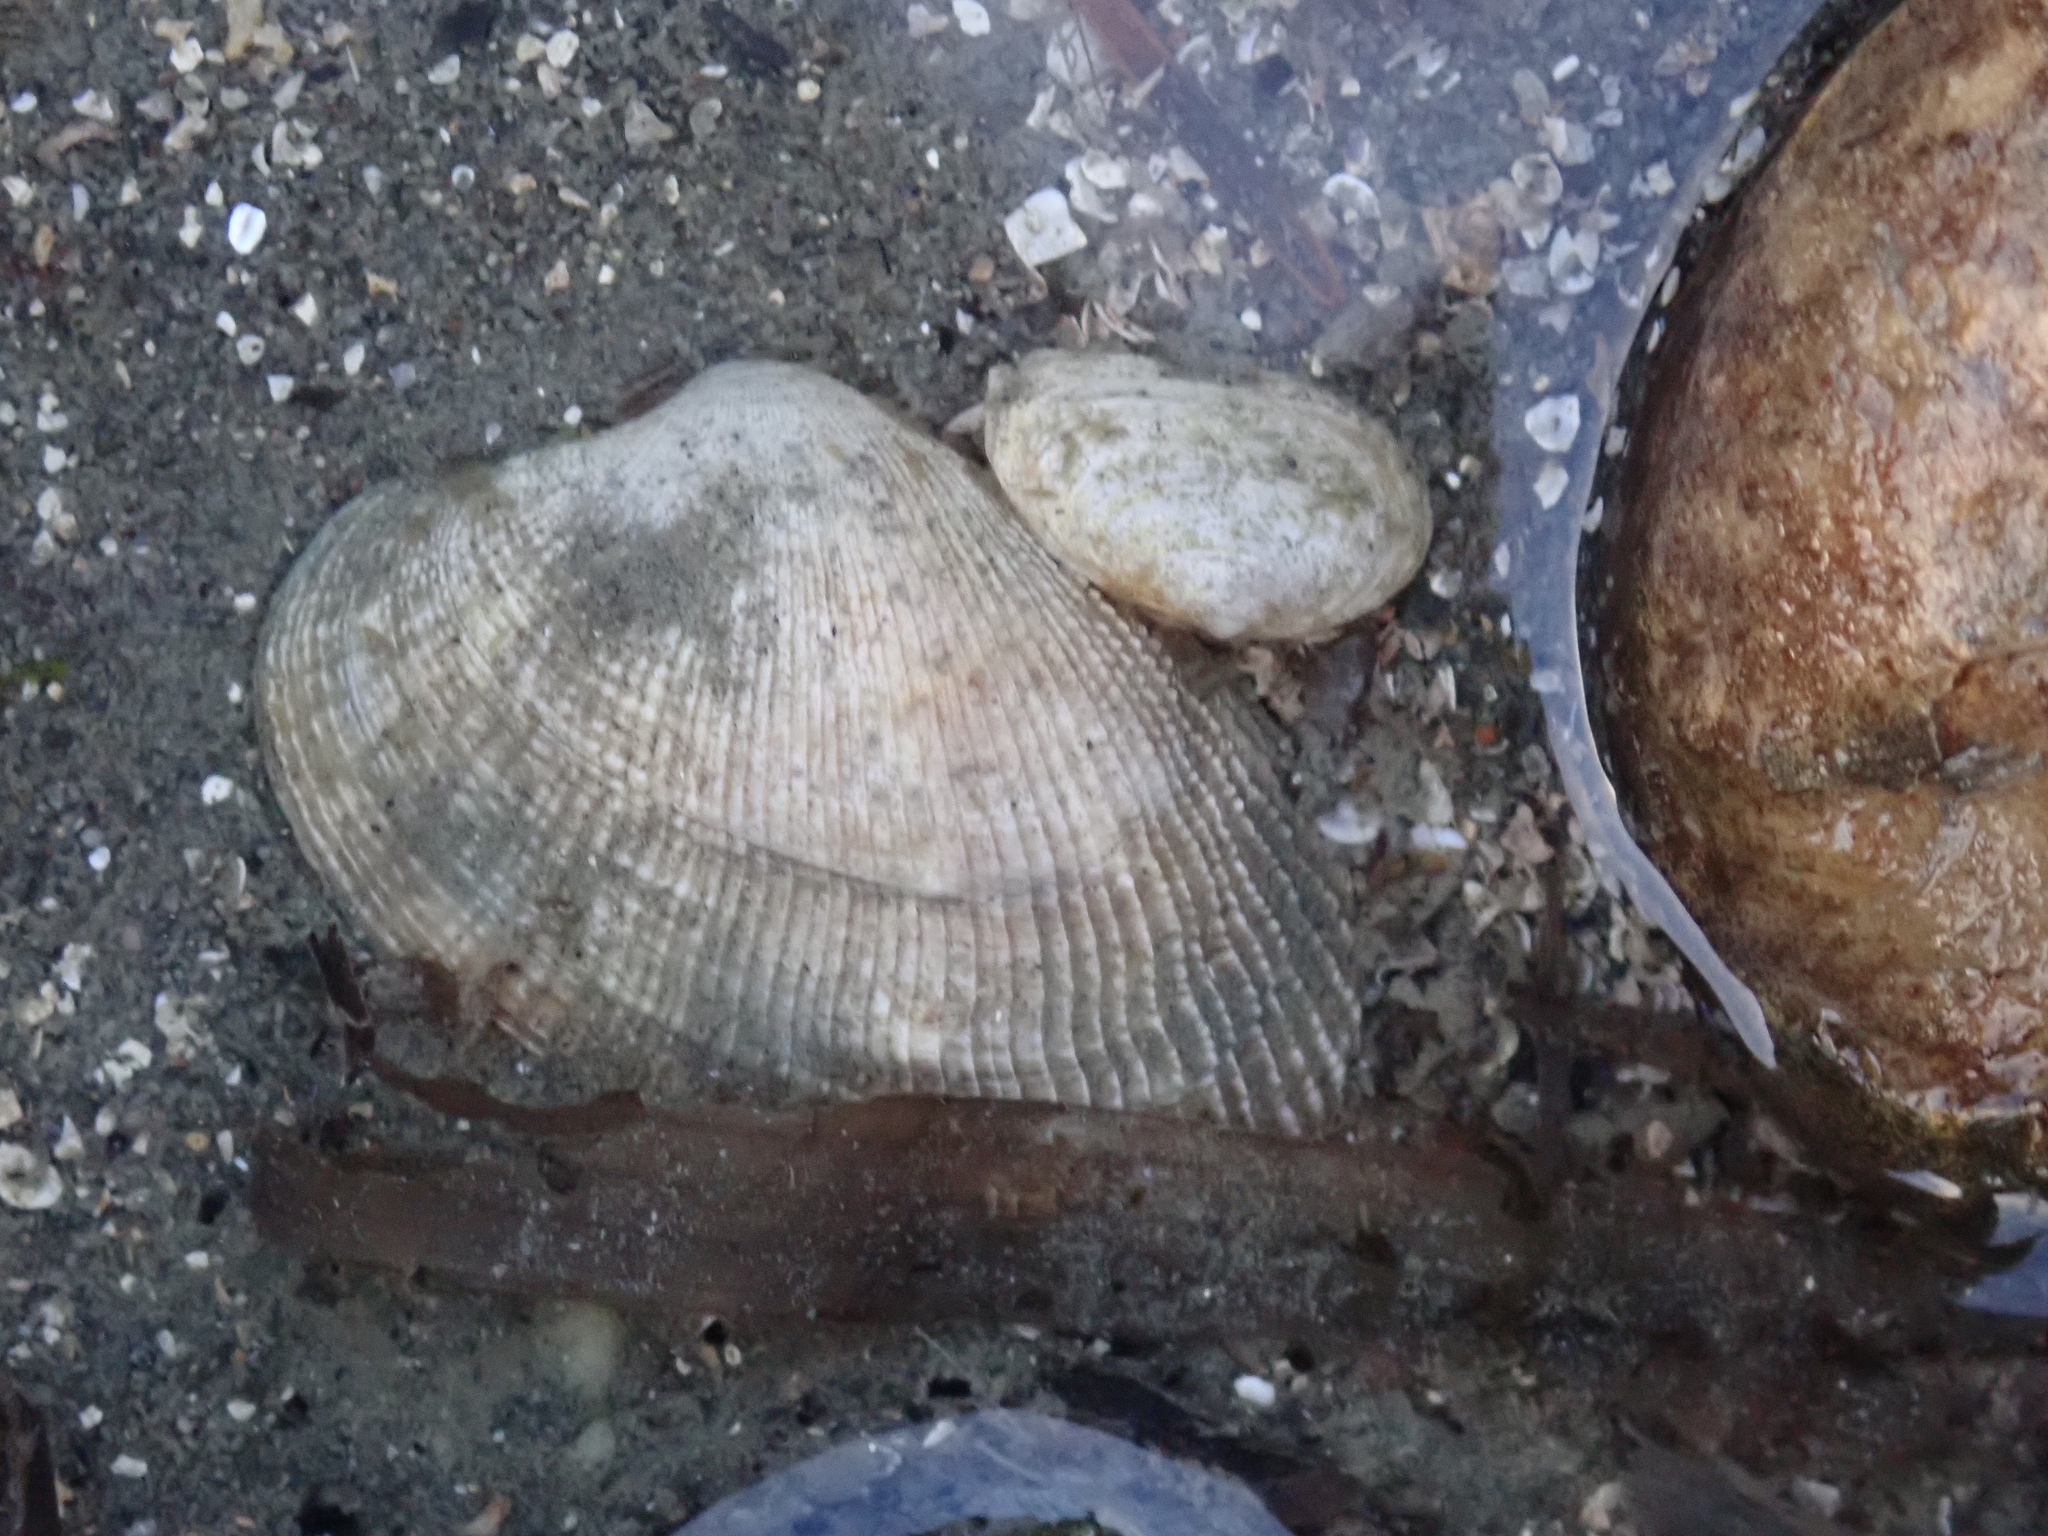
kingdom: Animalia
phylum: Mollusca
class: Bivalvia
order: Venerida
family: Veneridae
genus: Ruditapes
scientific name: Ruditapes philippinarum
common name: Manila clam
